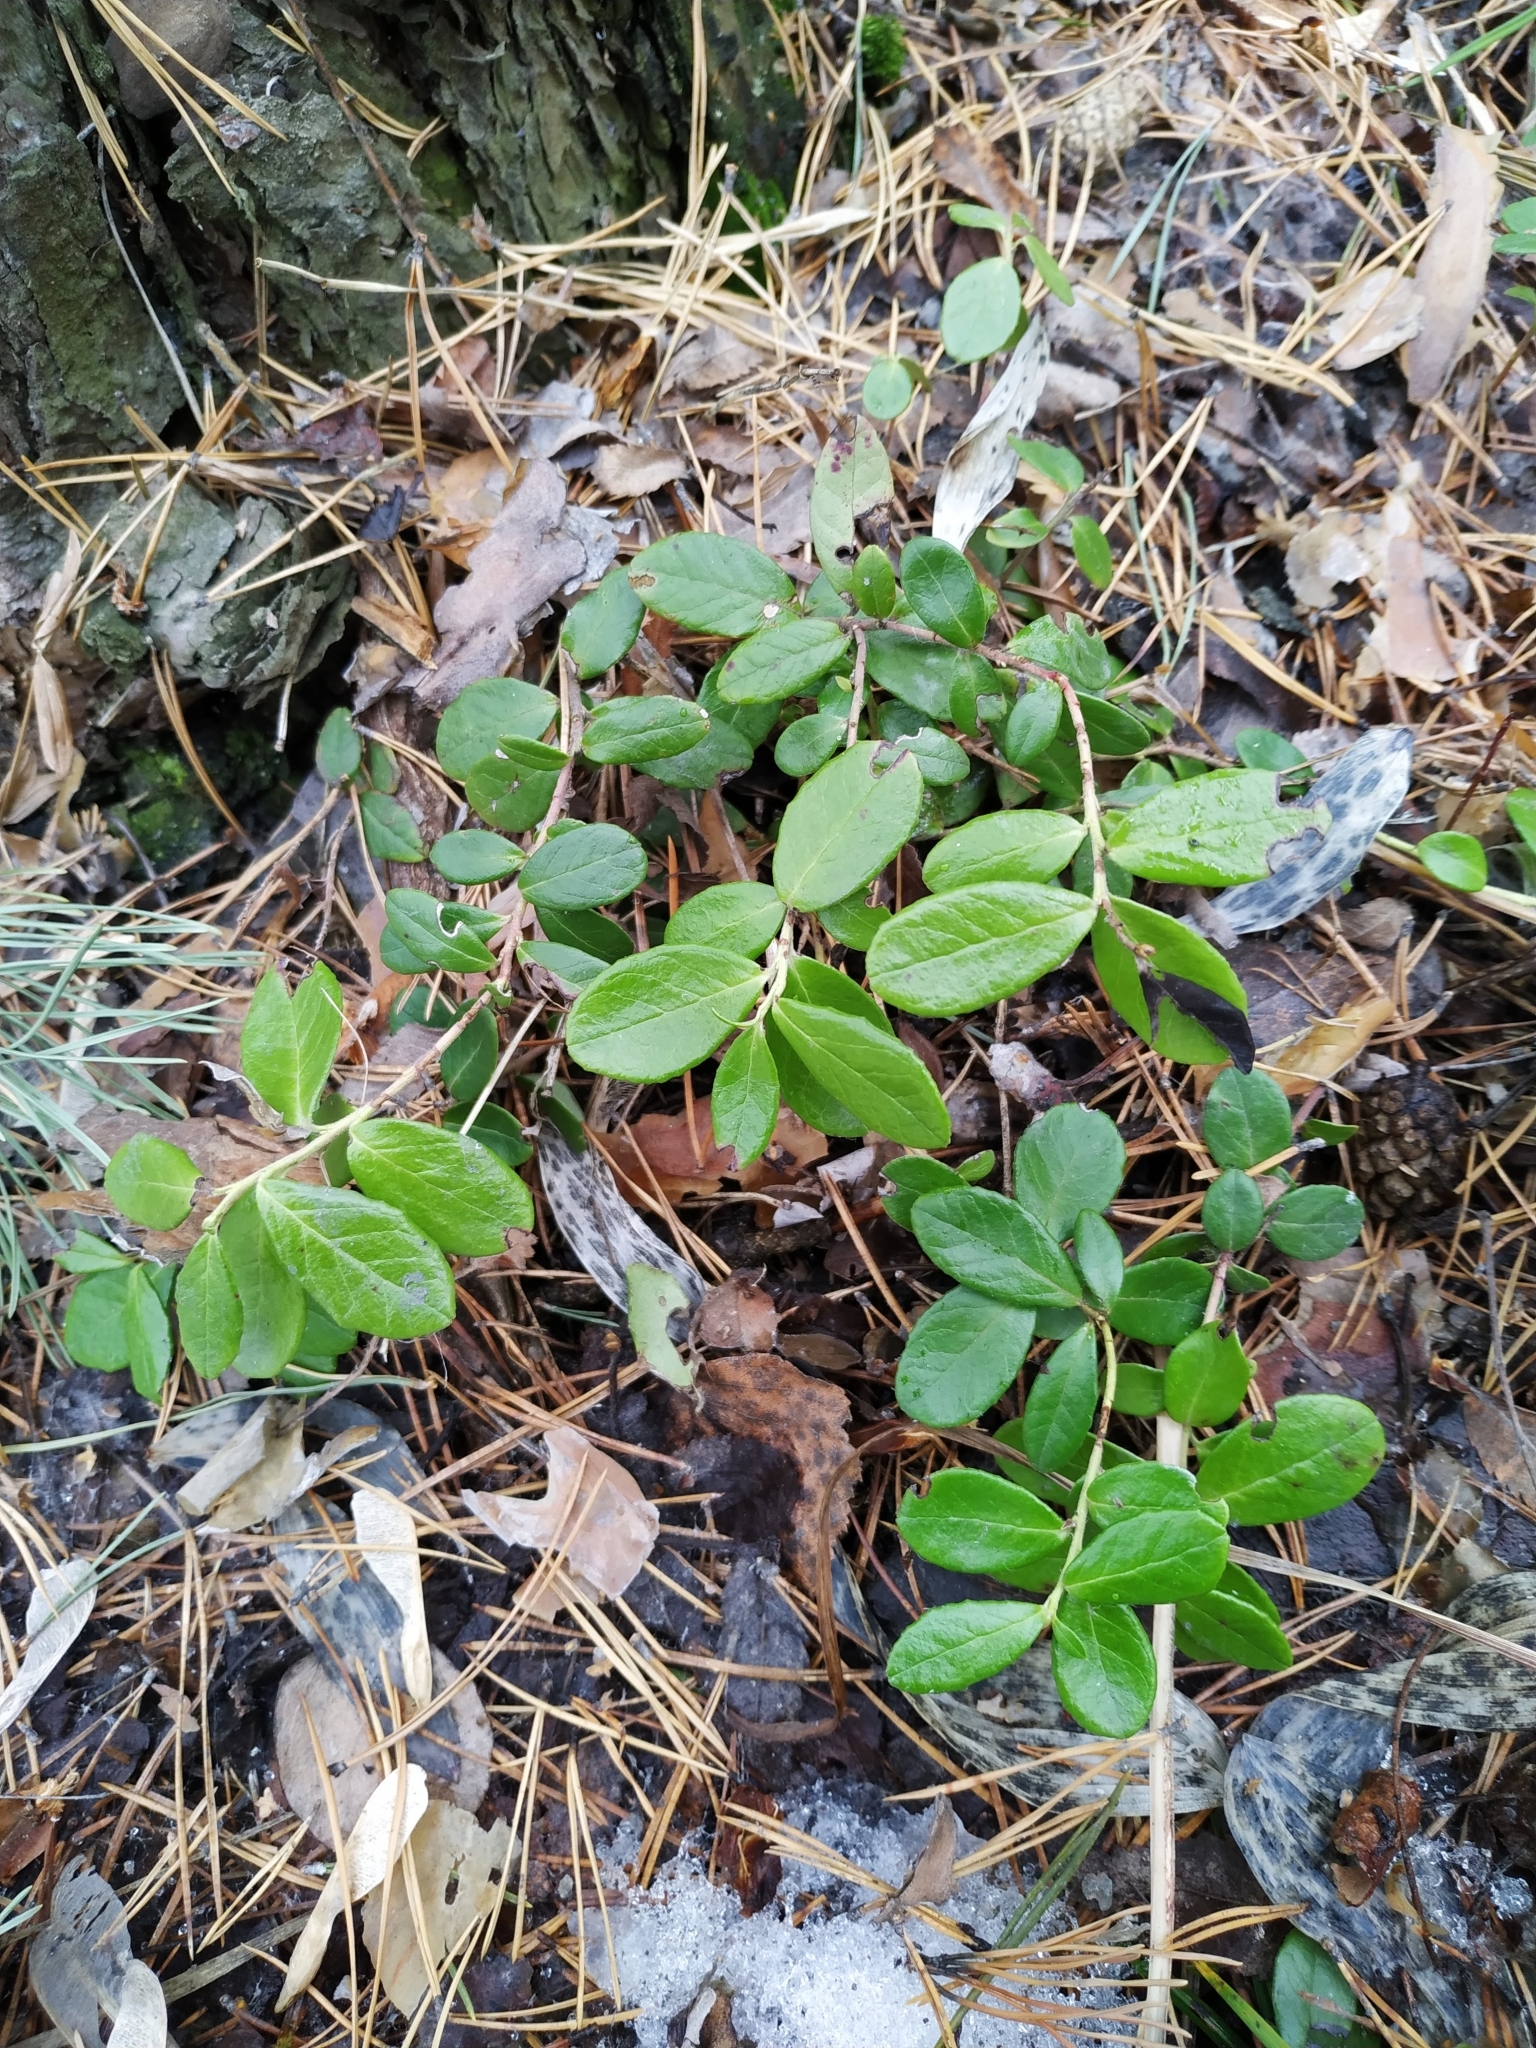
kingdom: Plantae
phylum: Tracheophyta
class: Magnoliopsida
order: Ericales
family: Ericaceae
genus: Vaccinium
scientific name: Vaccinium vitis-idaea
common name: Cowberry
